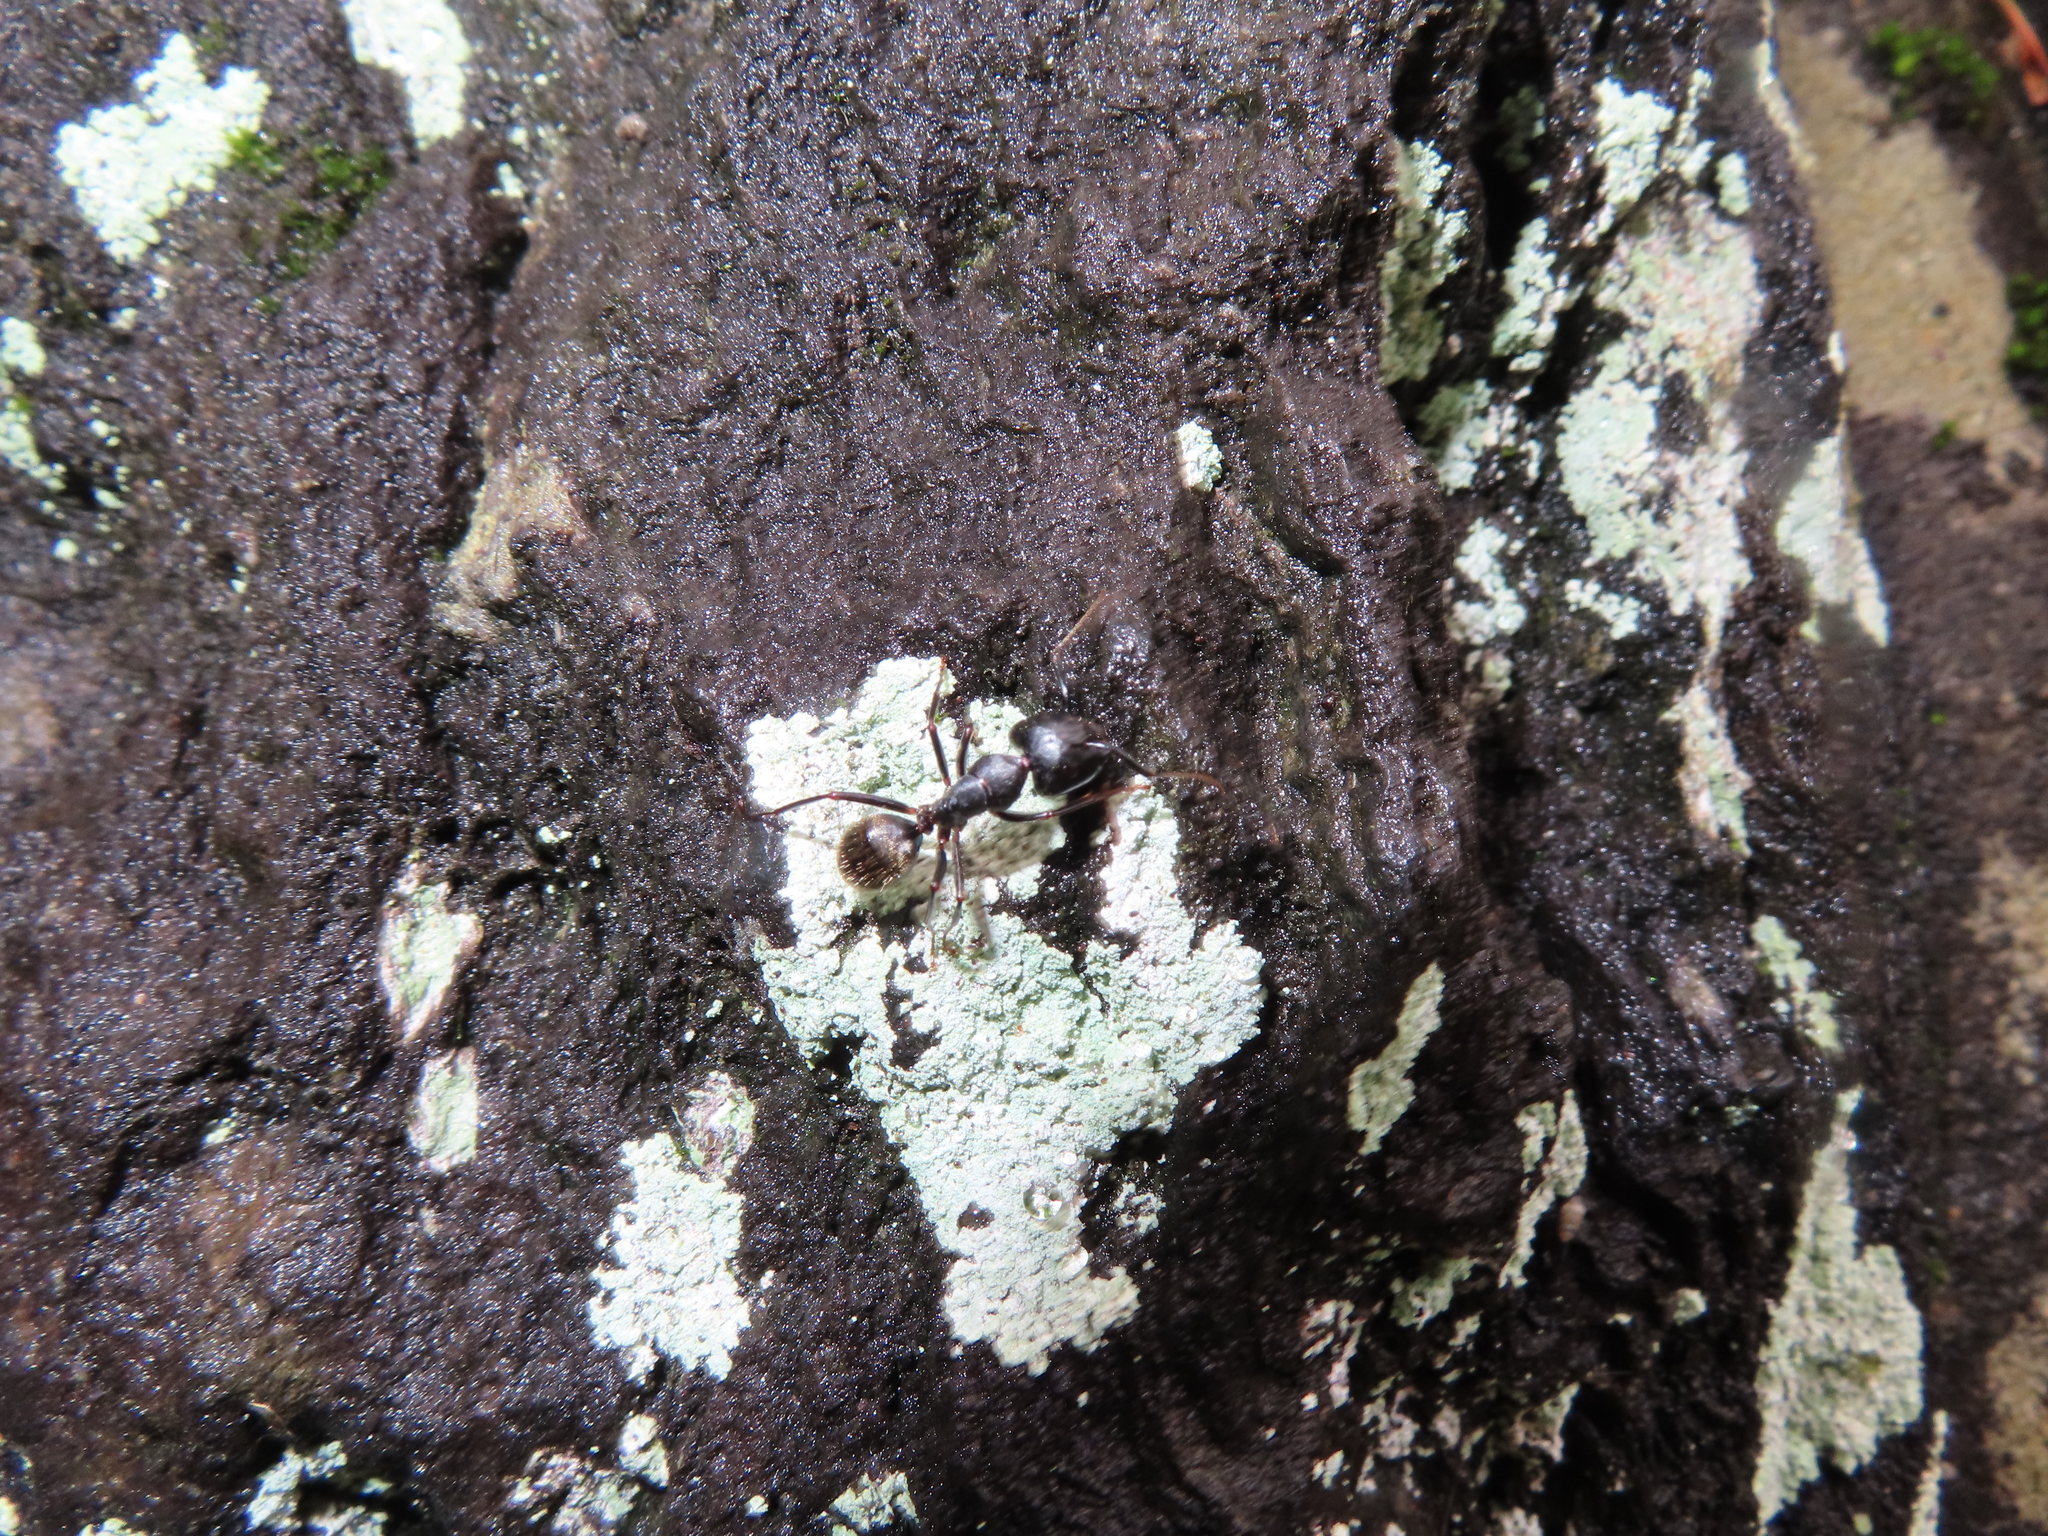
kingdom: Animalia
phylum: Arthropoda
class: Insecta
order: Hymenoptera
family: Formicidae
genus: Camponotus
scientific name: Camponotus pennsylvanicus
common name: Black carpenter ant
